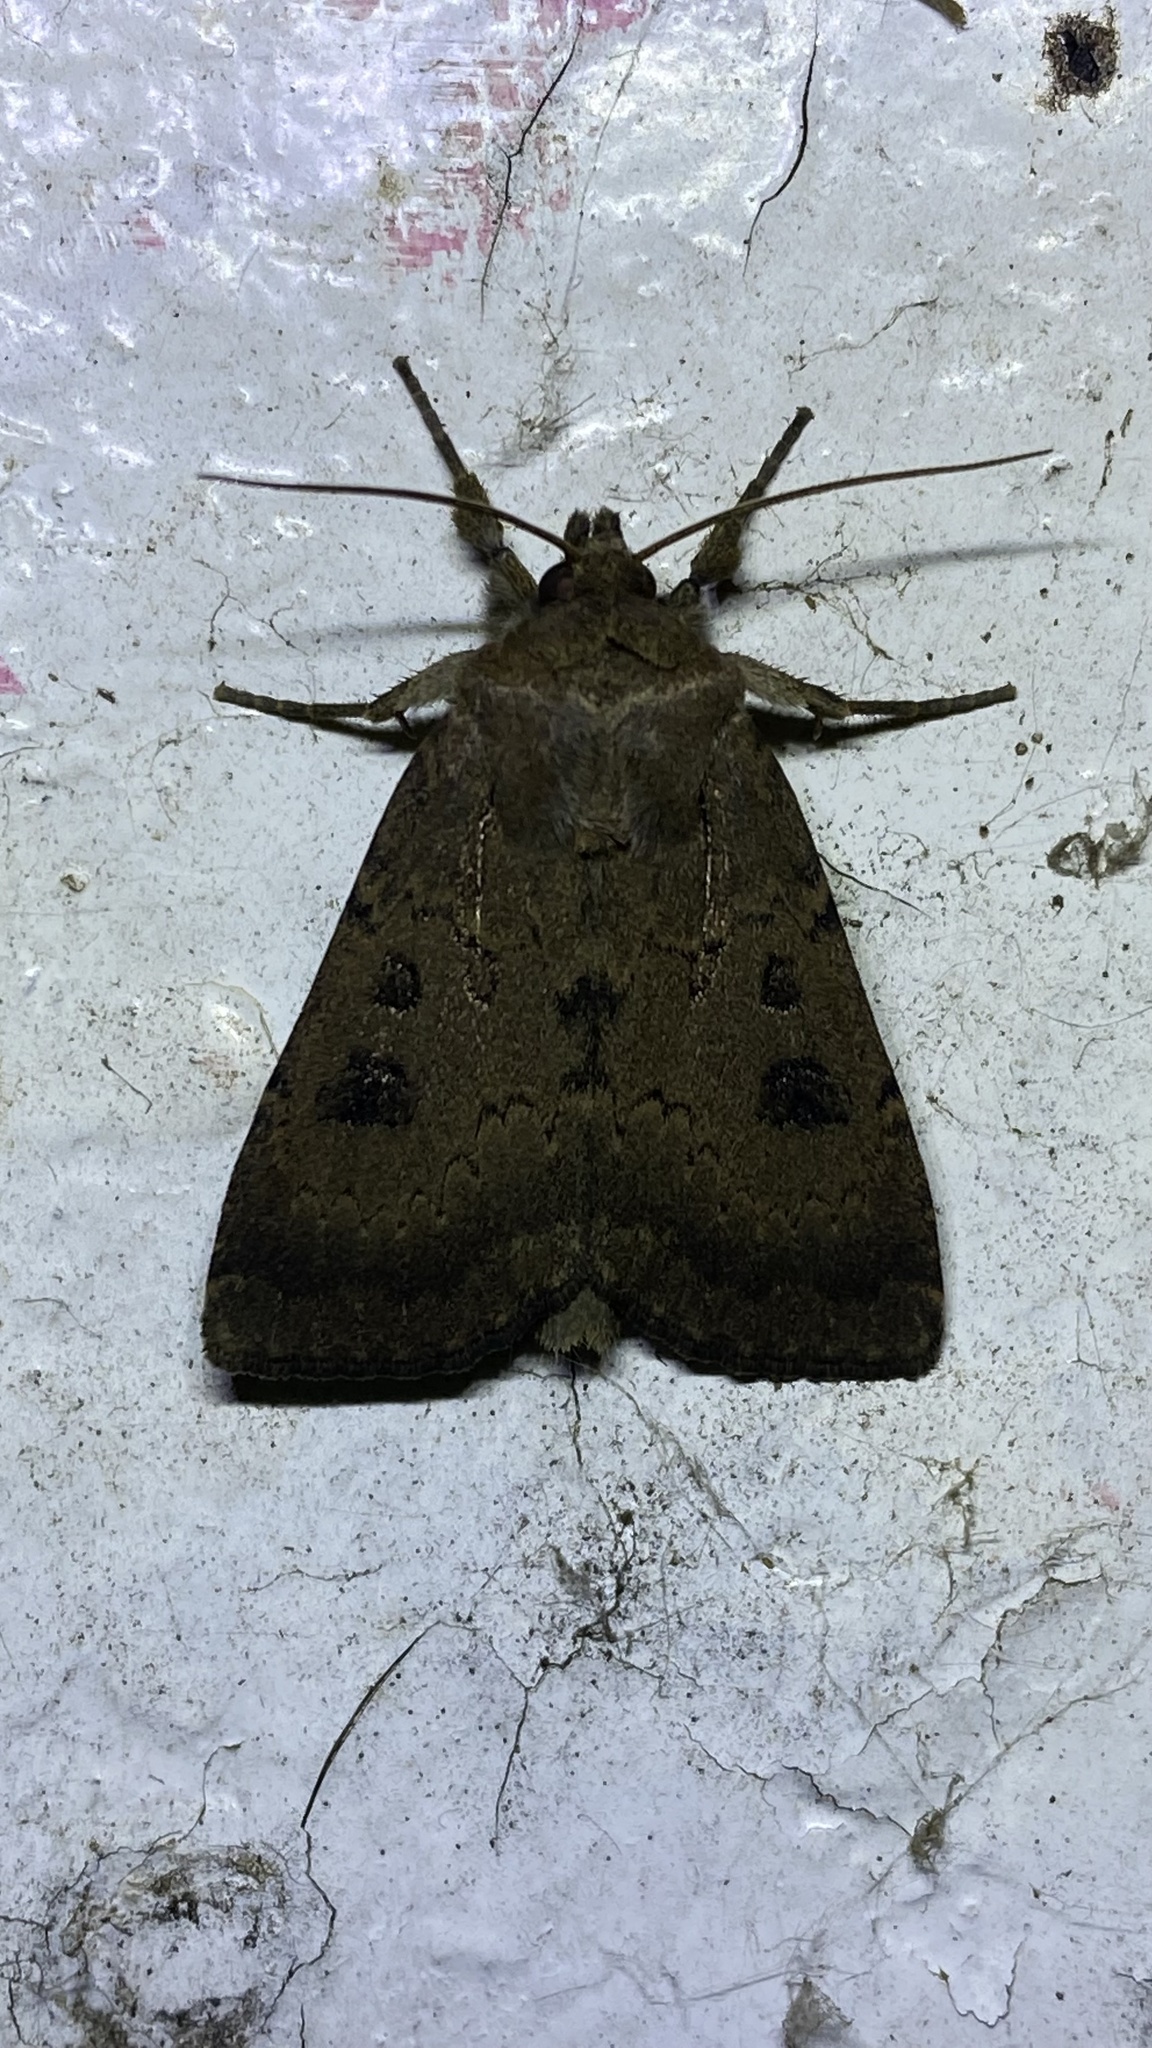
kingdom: Animalia
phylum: Arthropoda
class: Insecta
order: Lepidoptera
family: Noctuidae
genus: Graphiphora
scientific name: Graphiphora augur
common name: Double dart
